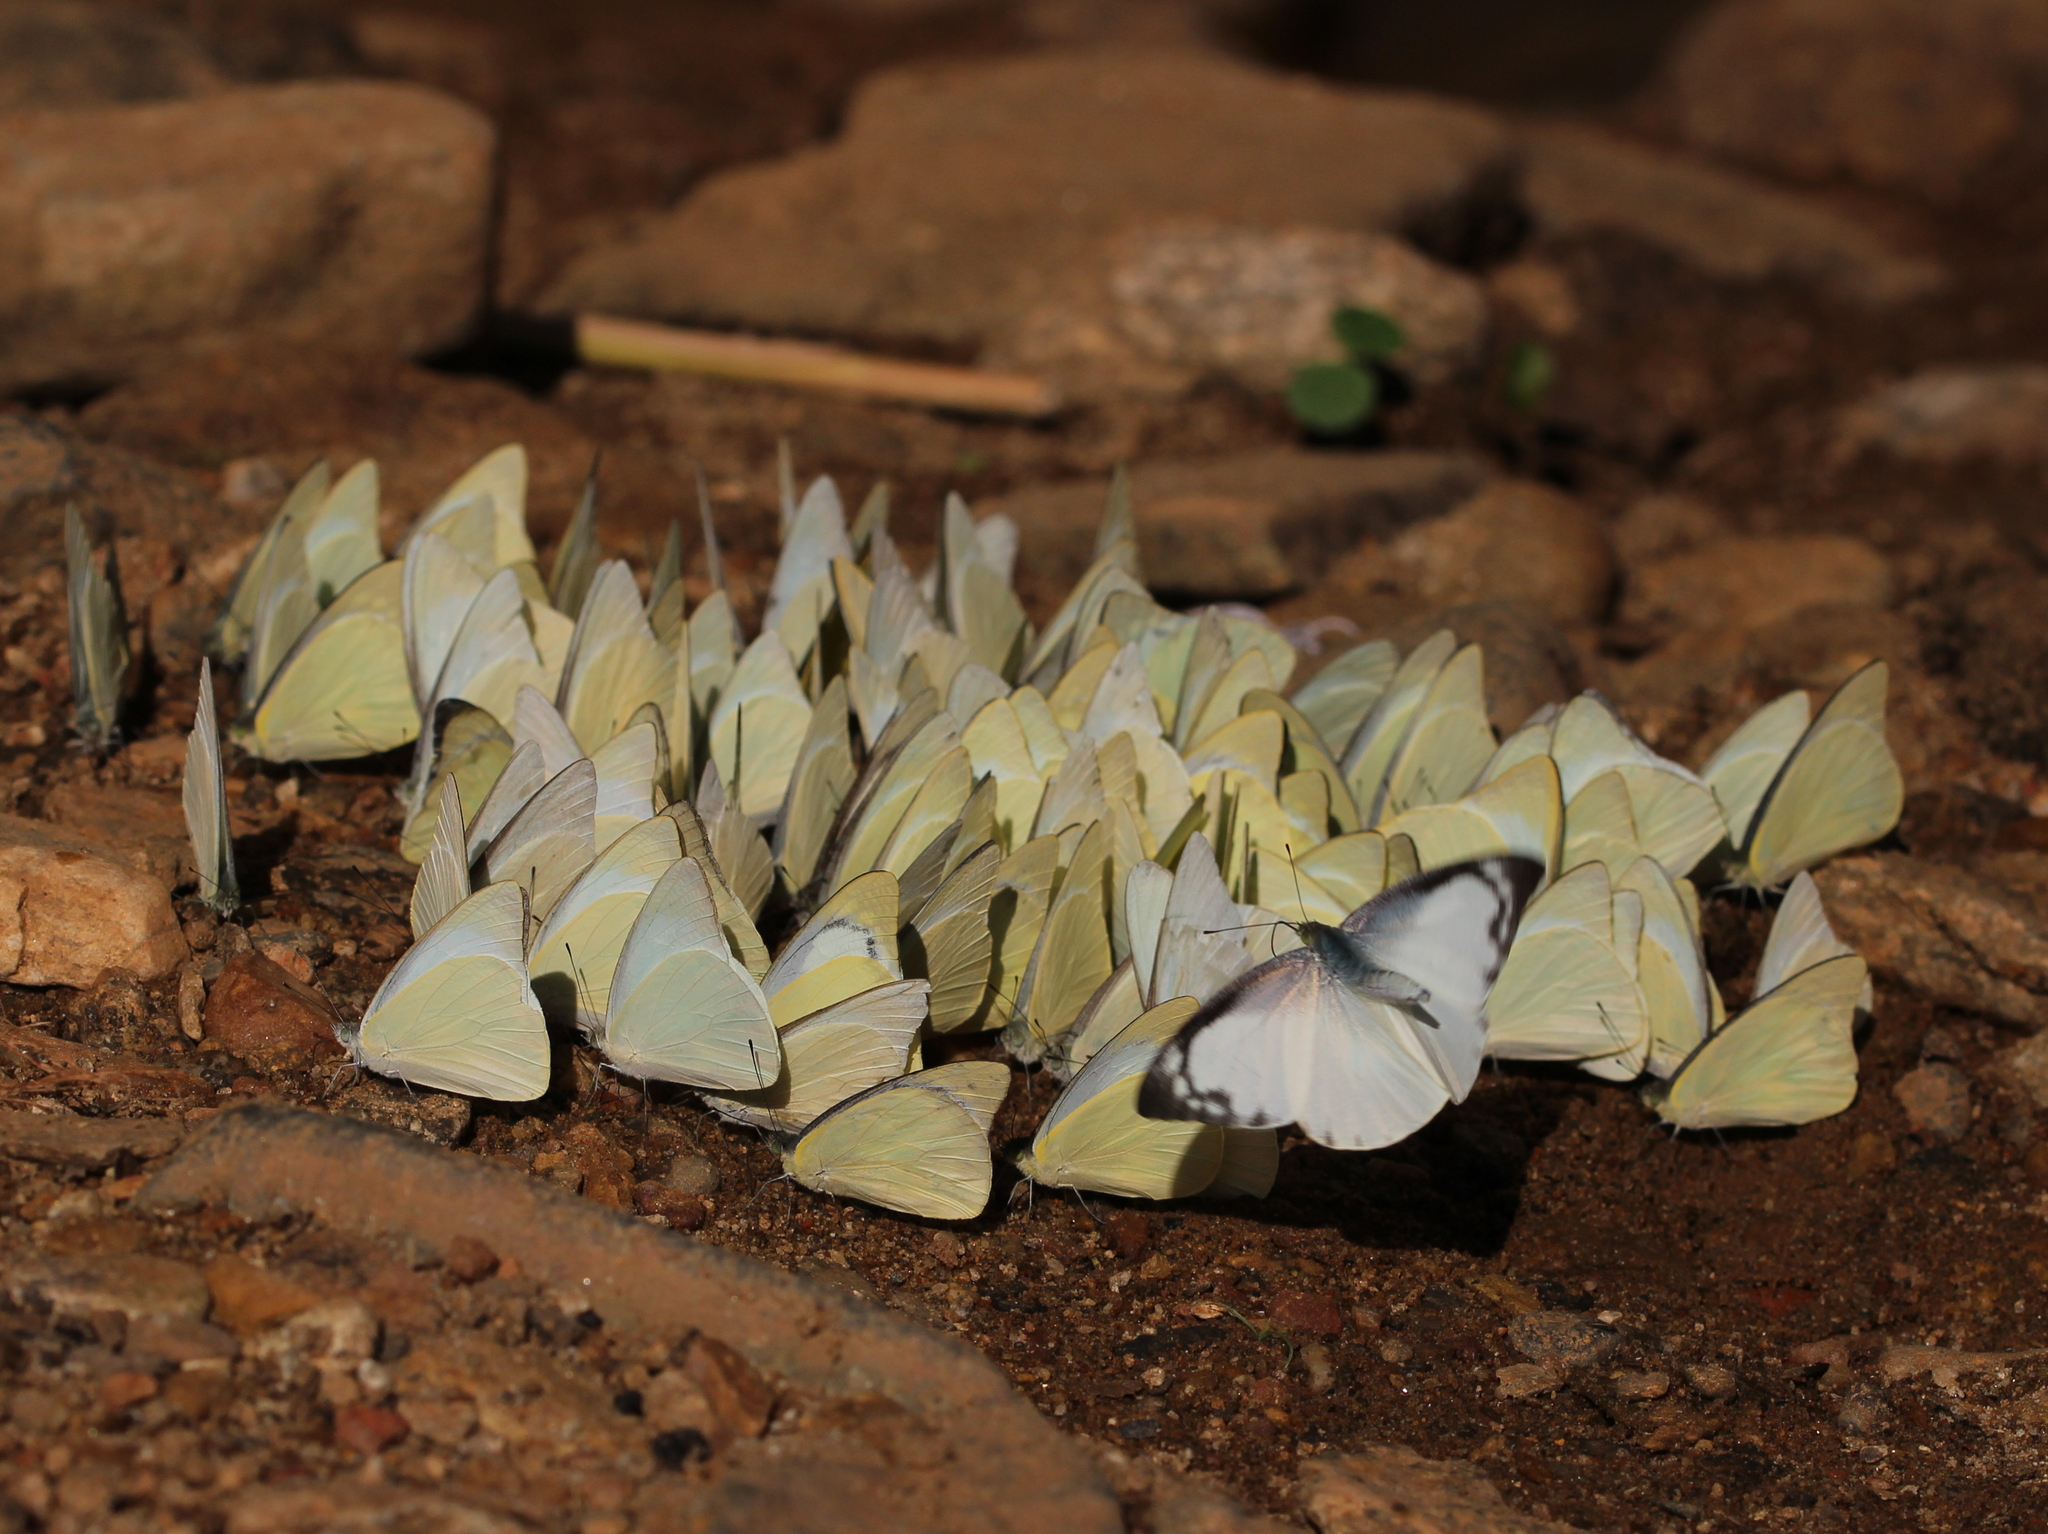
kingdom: Animalia
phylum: Arthropoda
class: Insecta
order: Lepidoptera
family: Pieridae
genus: Appias
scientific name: Appias albina
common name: Common albatross
